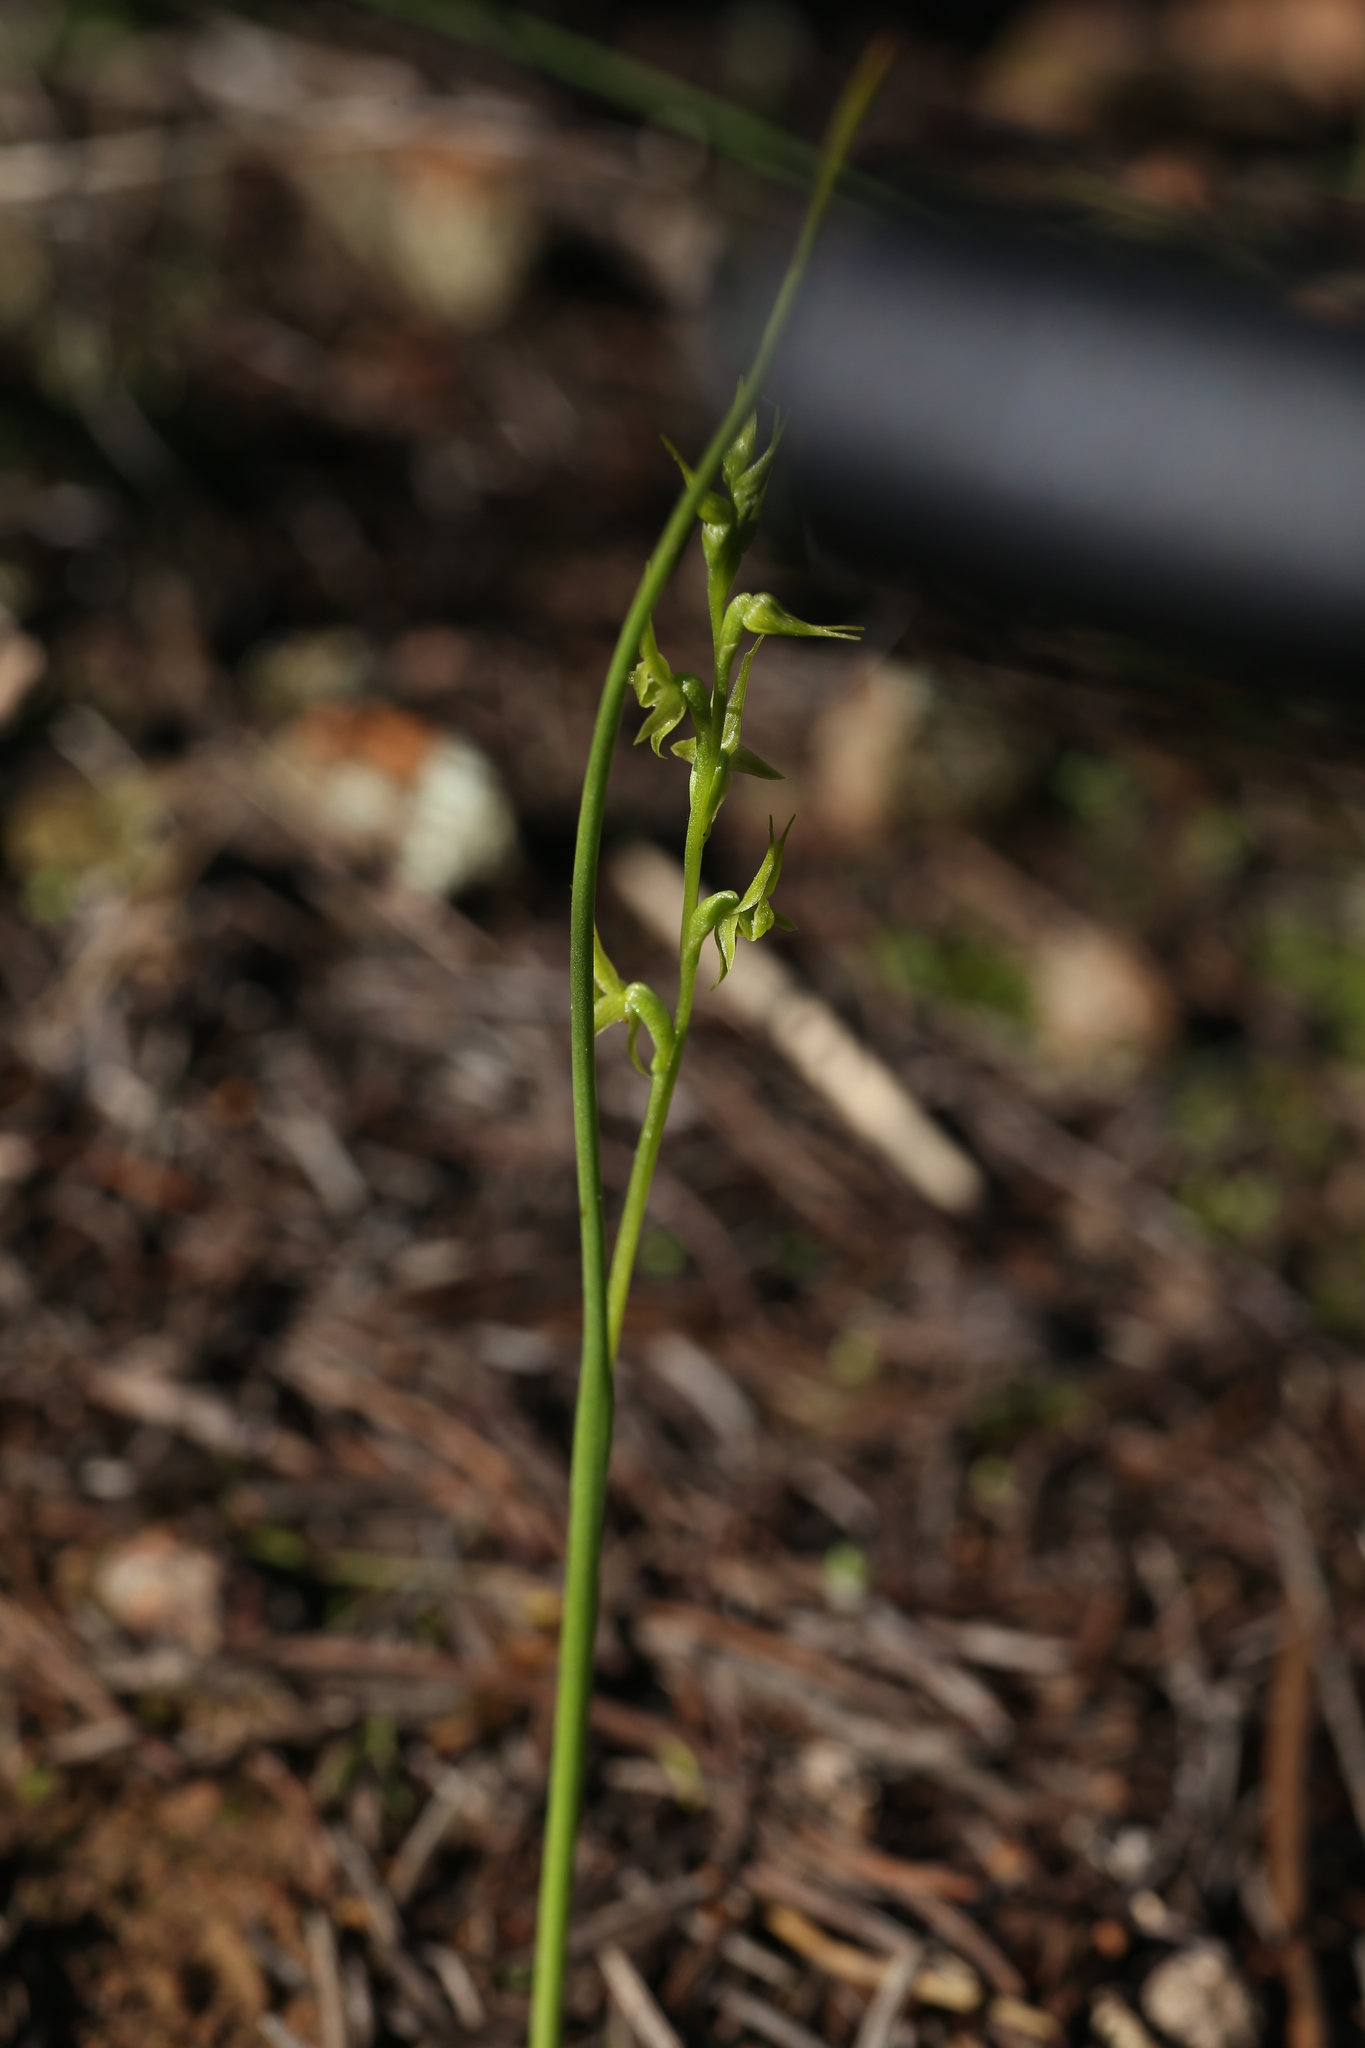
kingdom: Plantae
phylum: Tracheophyta
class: Liliopsida
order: Asparagales
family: Orchidaceae
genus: Prasophyllum
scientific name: Prasophyllum gracile
